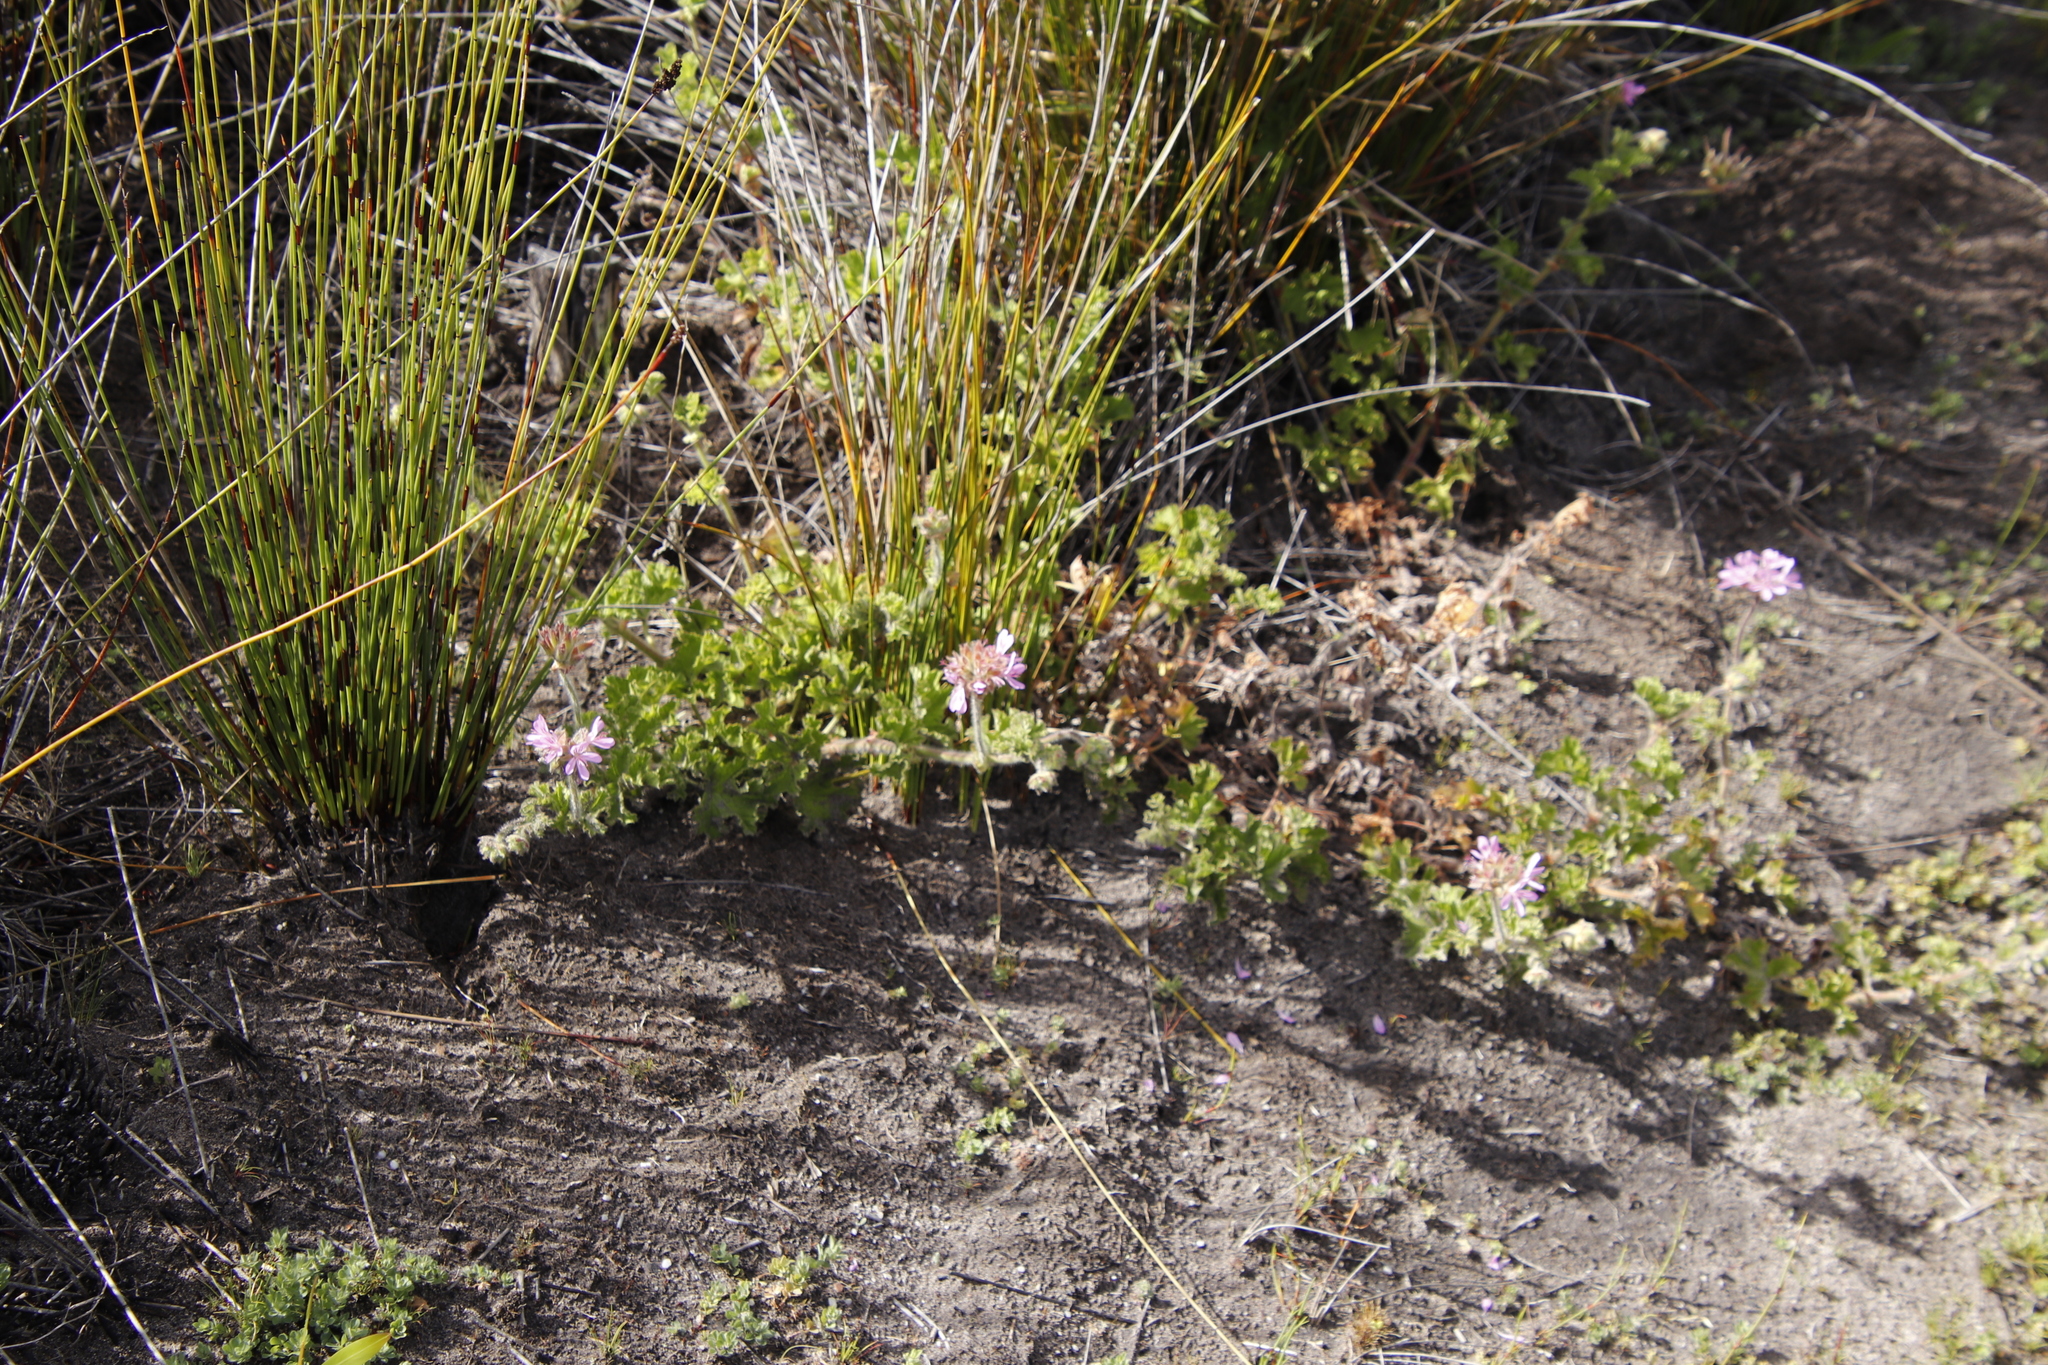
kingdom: Plantae
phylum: Tracheophyta
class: Magnoliopsida
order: Geraniales
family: Geraniaceae
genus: Pelargonium
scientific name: Pelargonium capitatum
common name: Rose scented geranium
